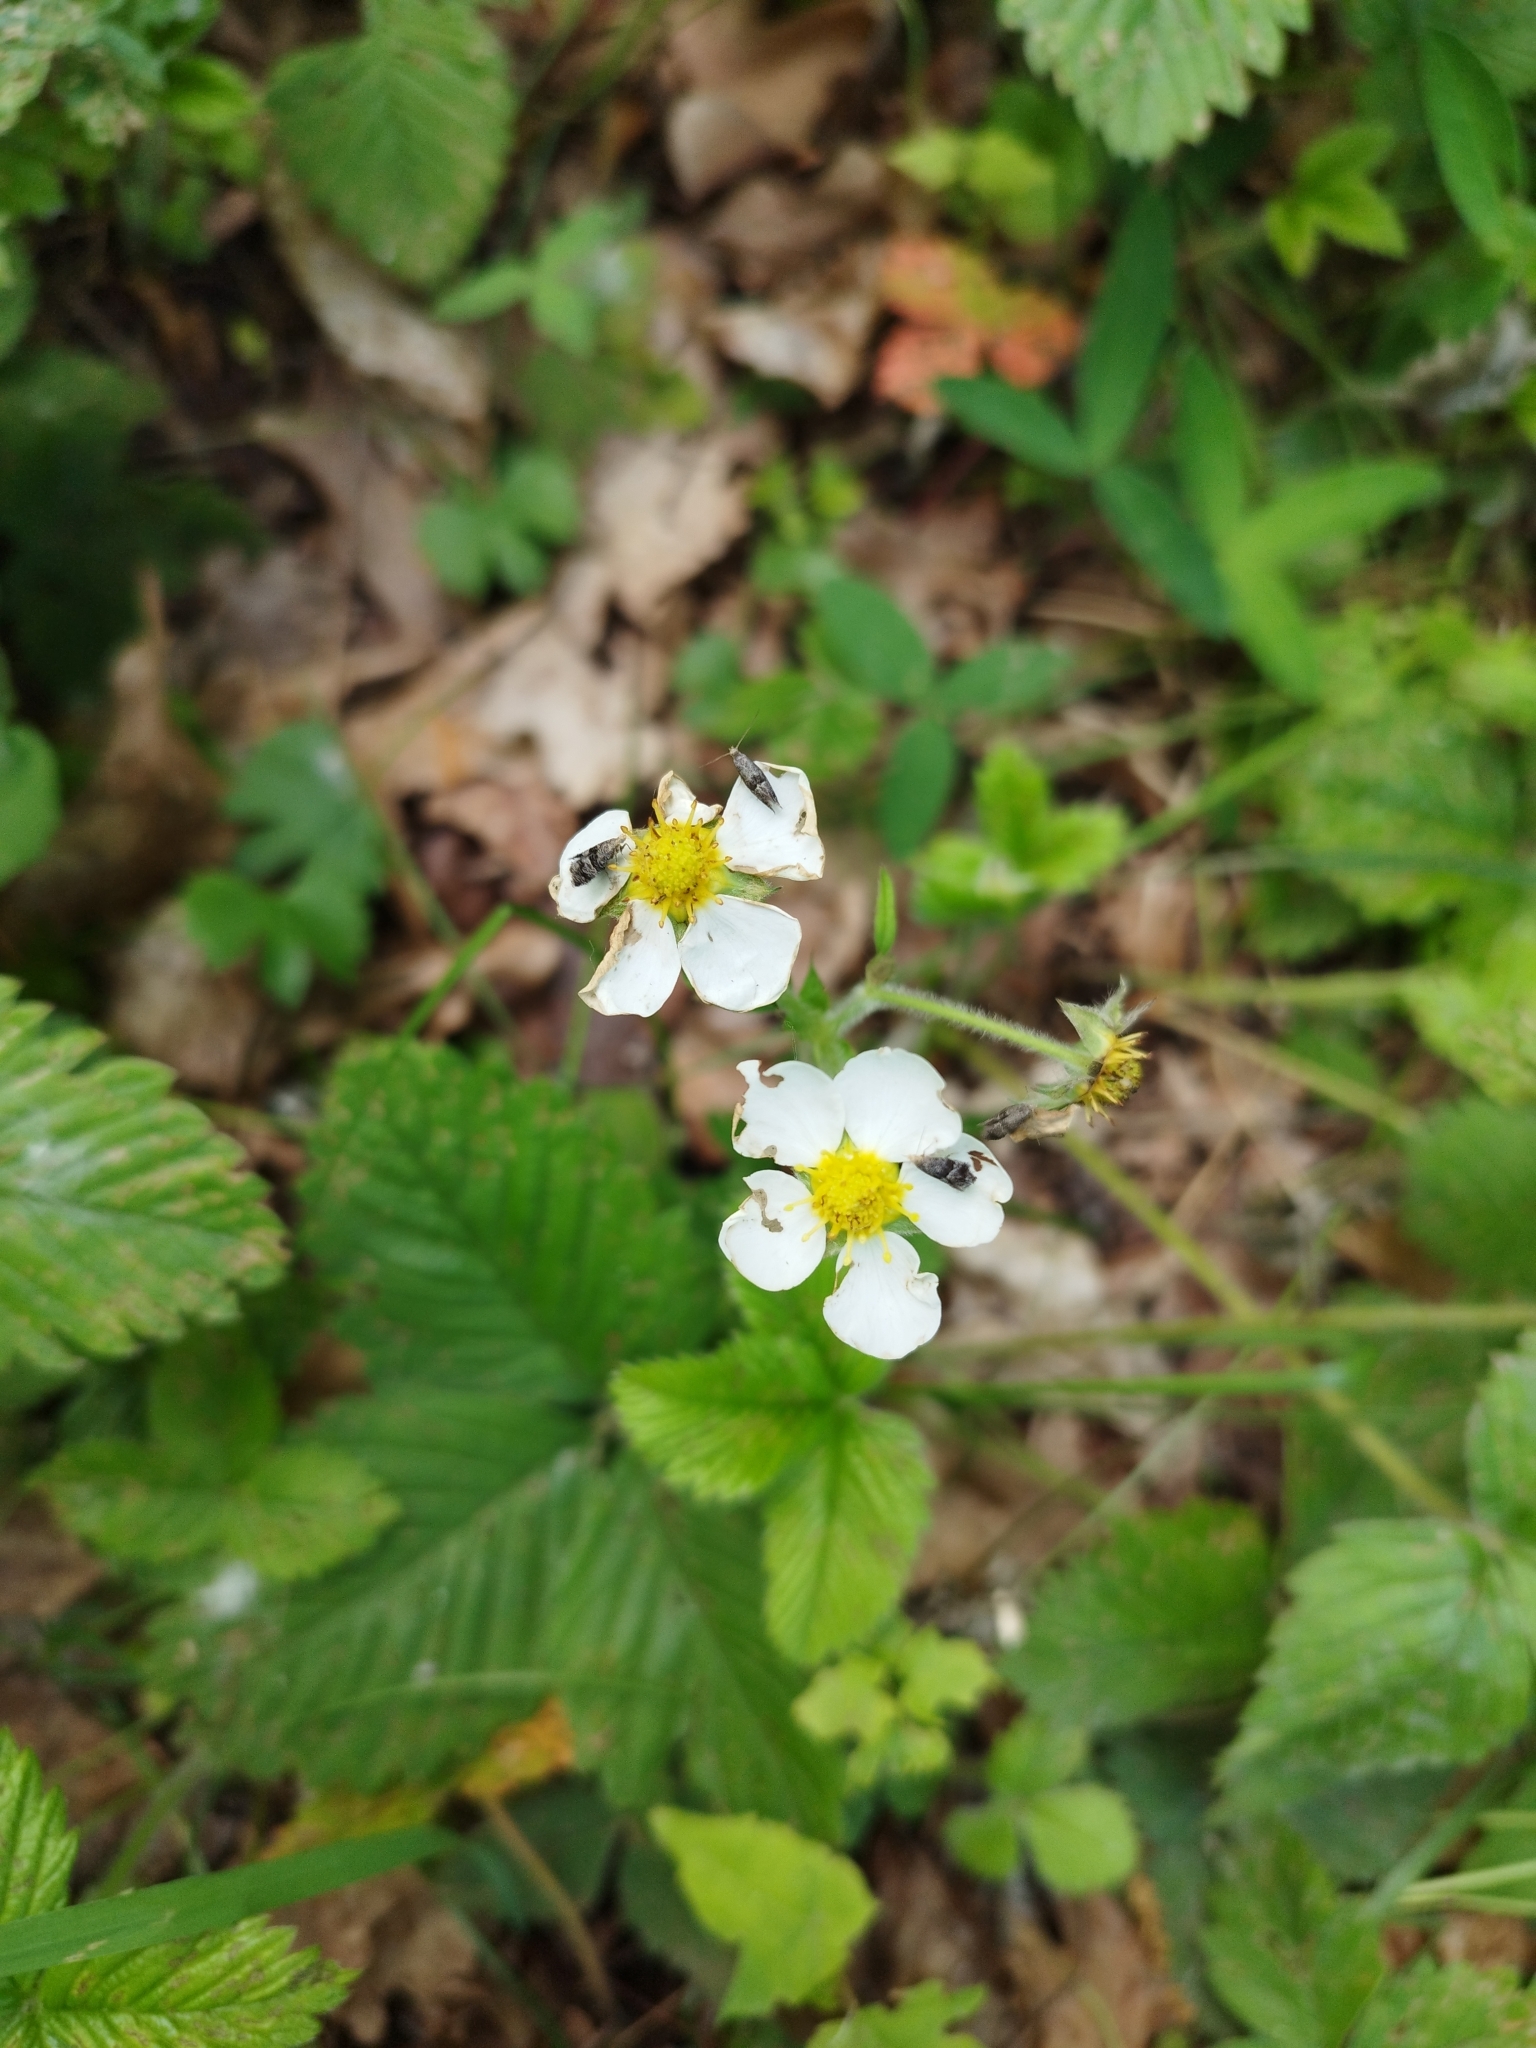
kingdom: Plantae
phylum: Tracheophyta
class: Magnoliopsida
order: Rosales
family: Rosaceae
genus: Fragaria
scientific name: Fragaria moschata
